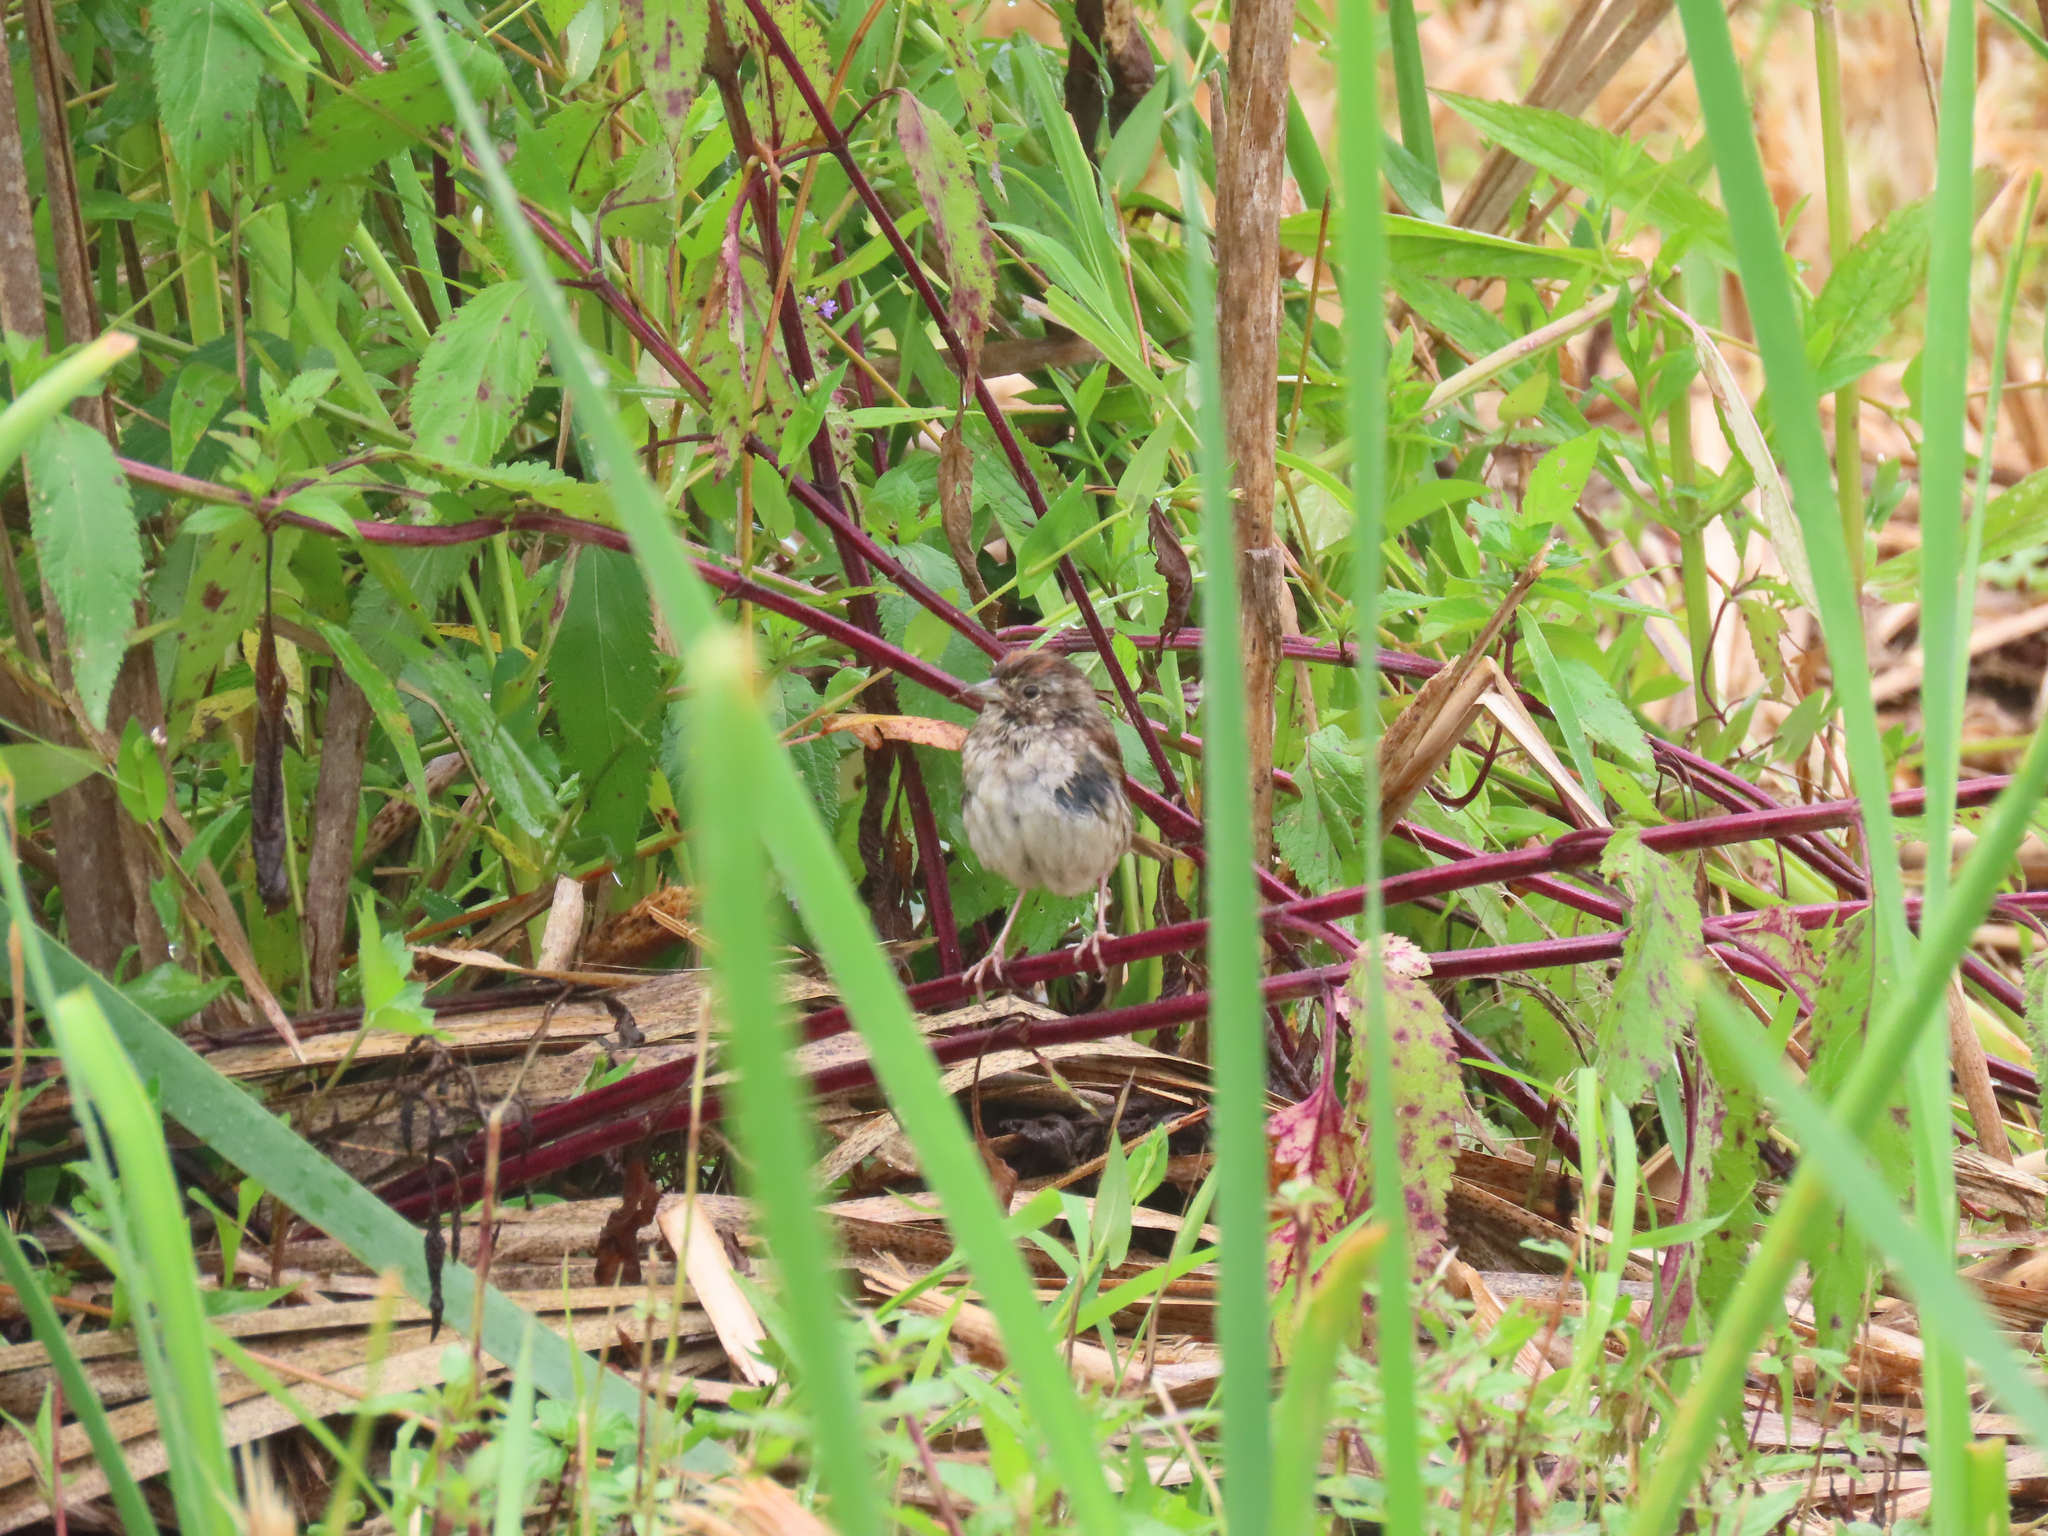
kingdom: Animalia
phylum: Chordata
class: Aves
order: Passeriformes
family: Passerellidae
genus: Melospiza
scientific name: Melospiza georgiana
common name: Swamp sparrow
